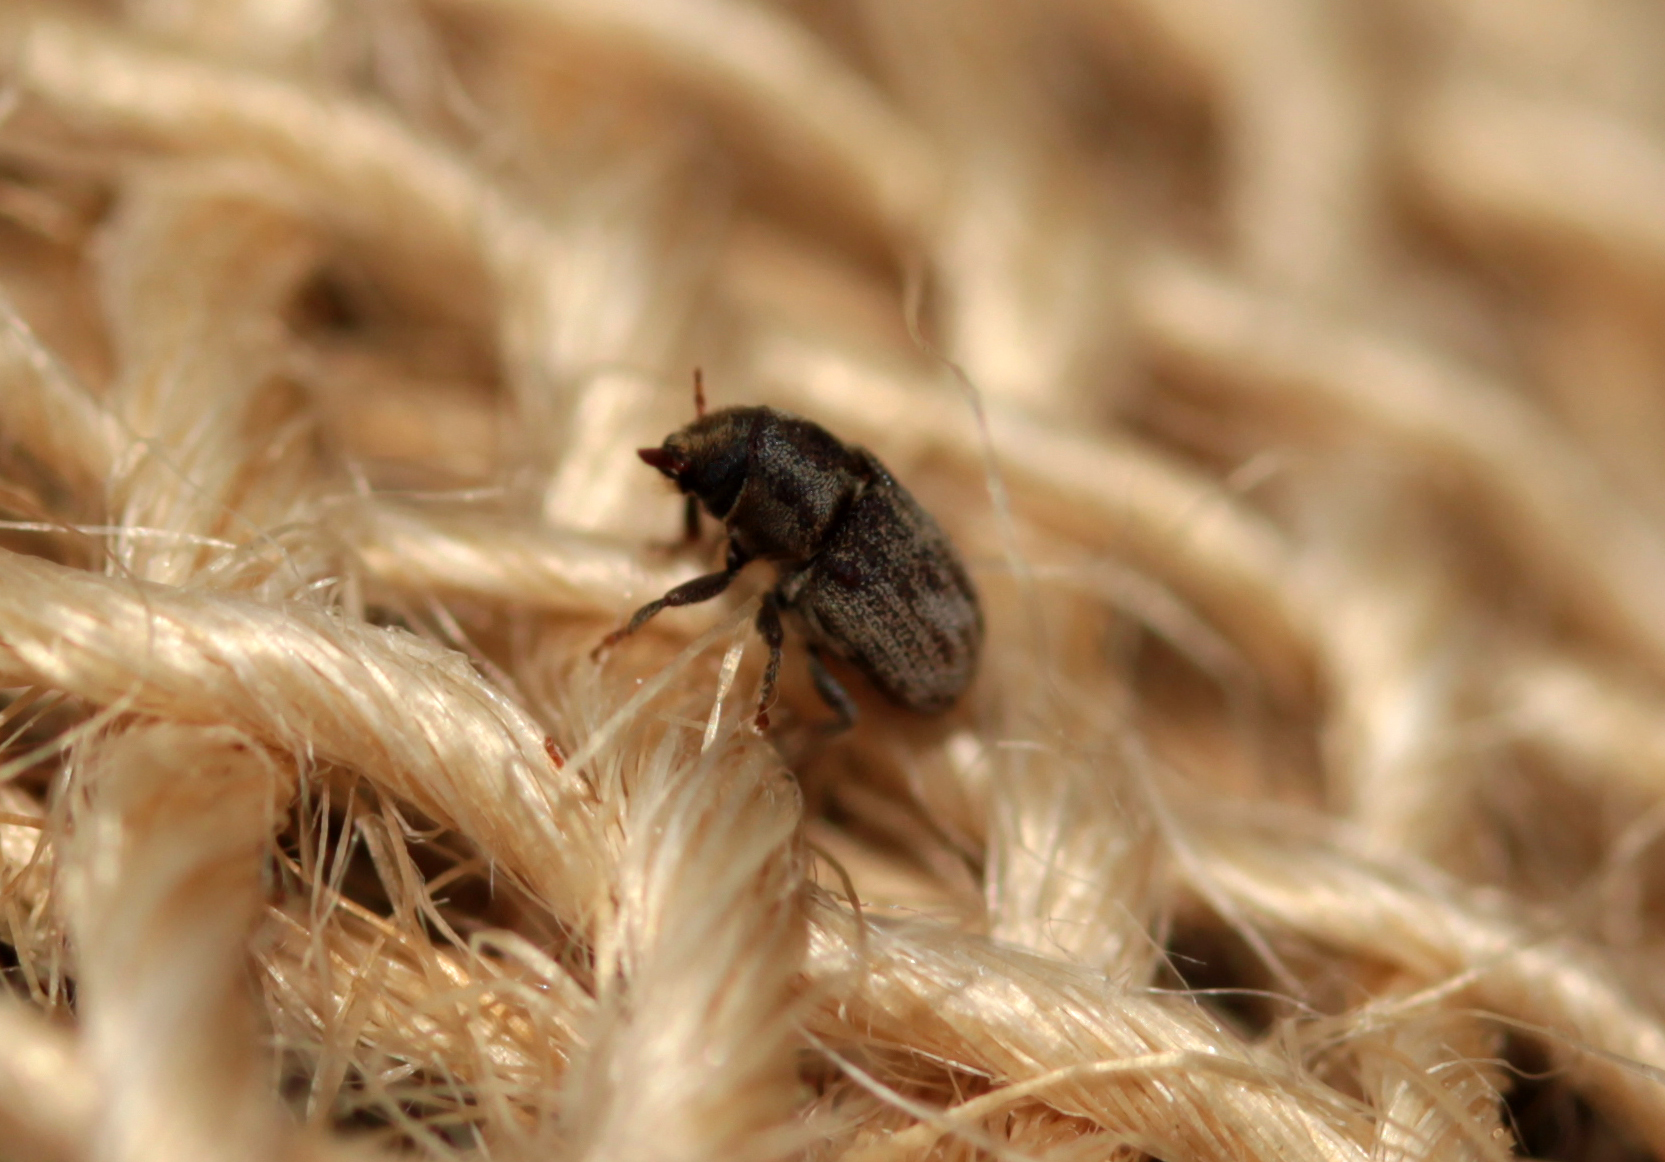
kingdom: Animalia
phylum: Arthropoda
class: Insecta
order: Coleoptera
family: Curculionidae
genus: Hylesinus
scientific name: Hylesinus aculeatus
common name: Easter-ash bark beetle
